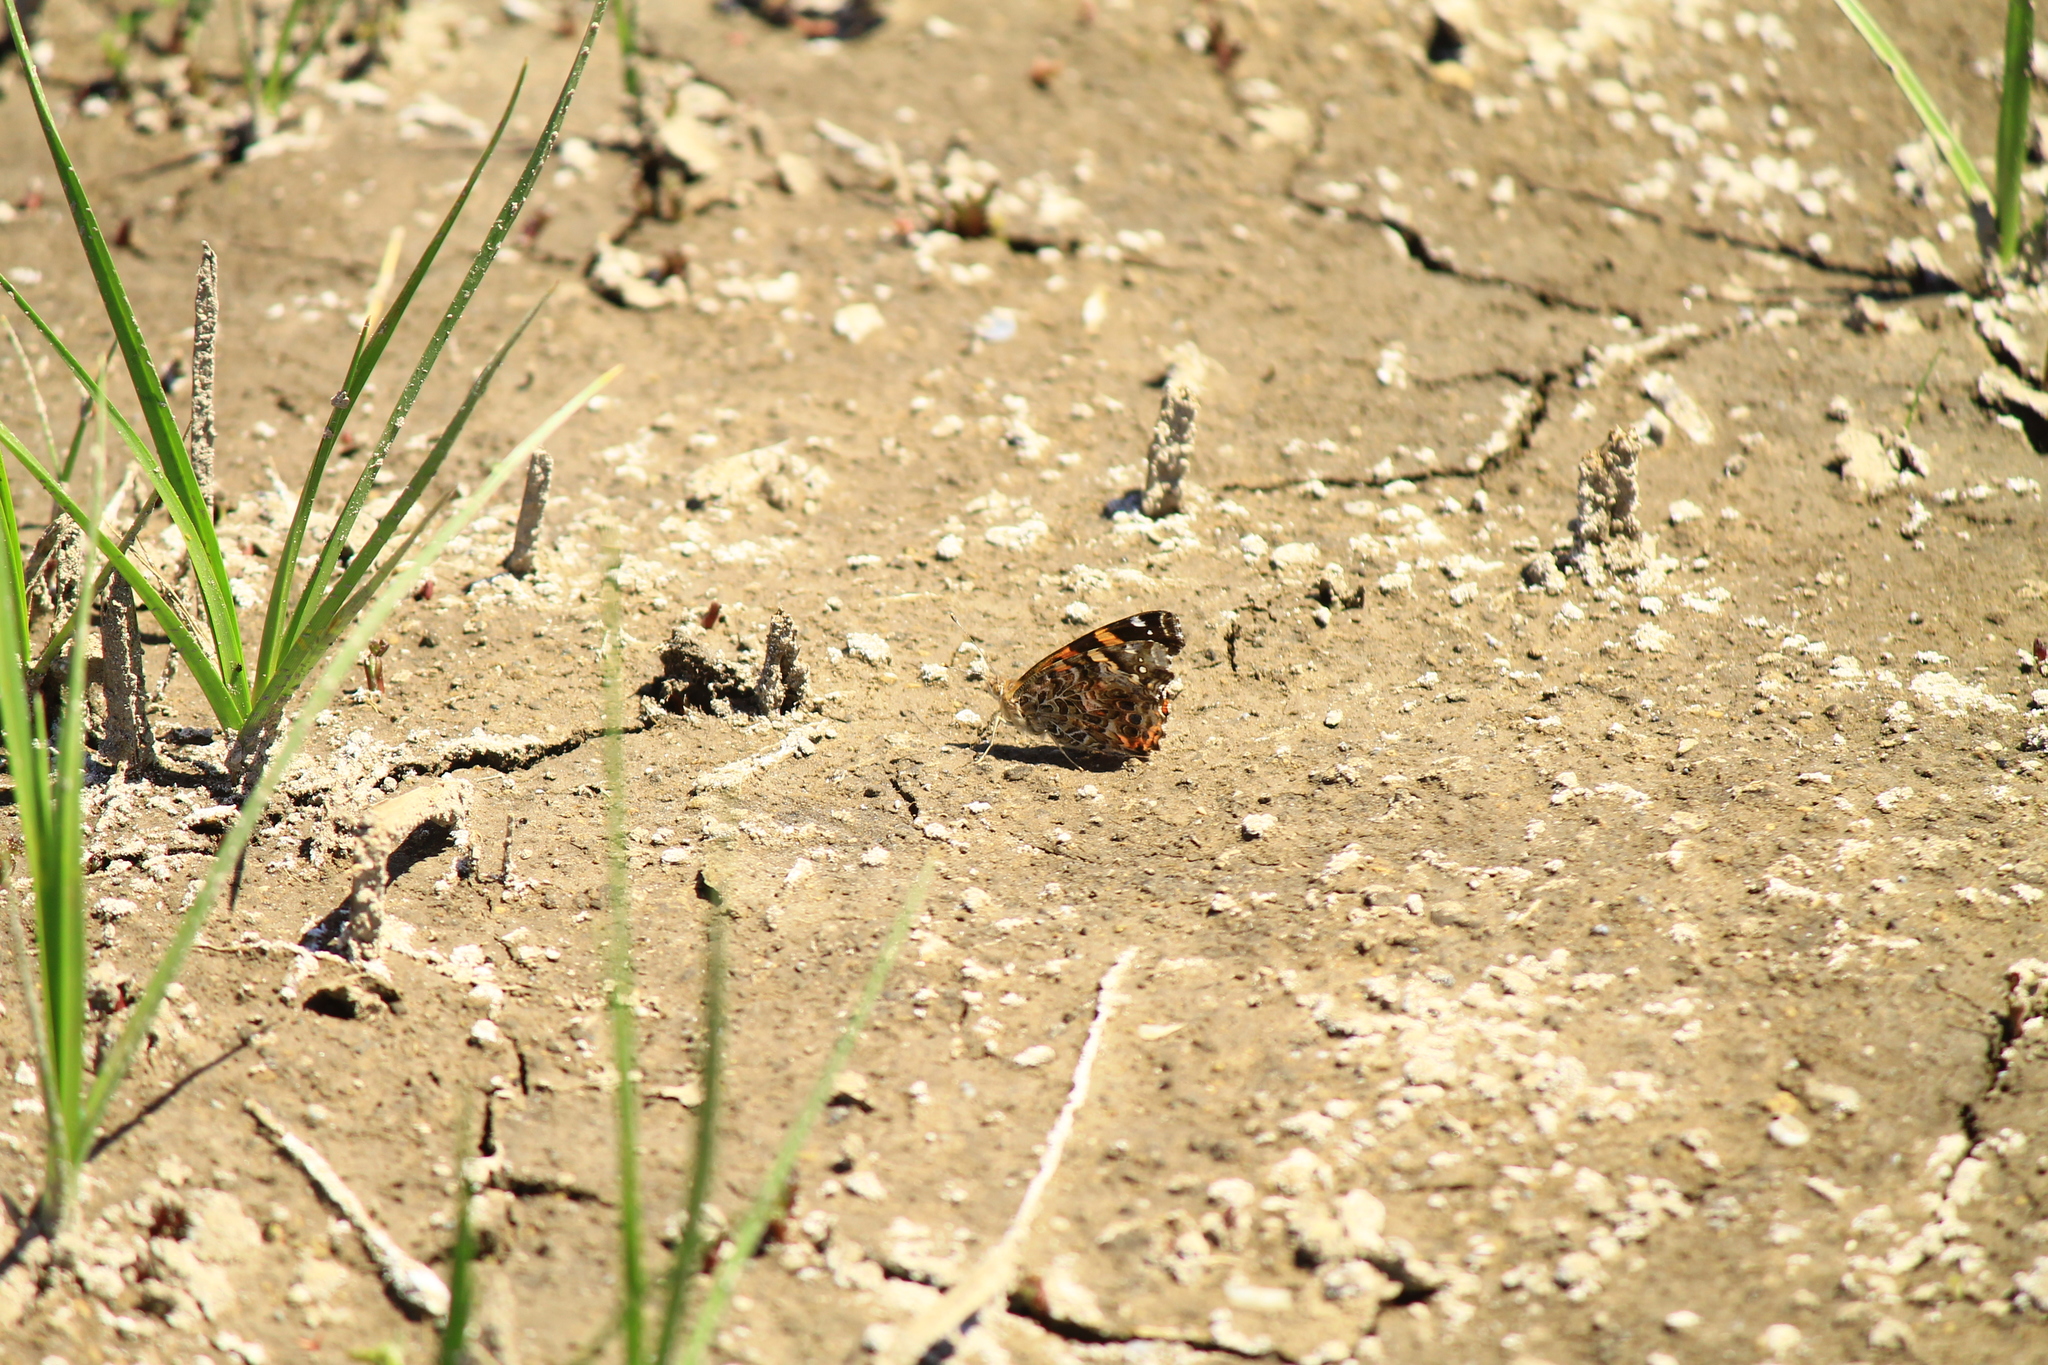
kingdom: Animalia
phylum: Arthropoda
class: Insecta
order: Lepidoptera
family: Nymphalidae
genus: Vanessa
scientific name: Vanessa carye
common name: Subtropical lady
